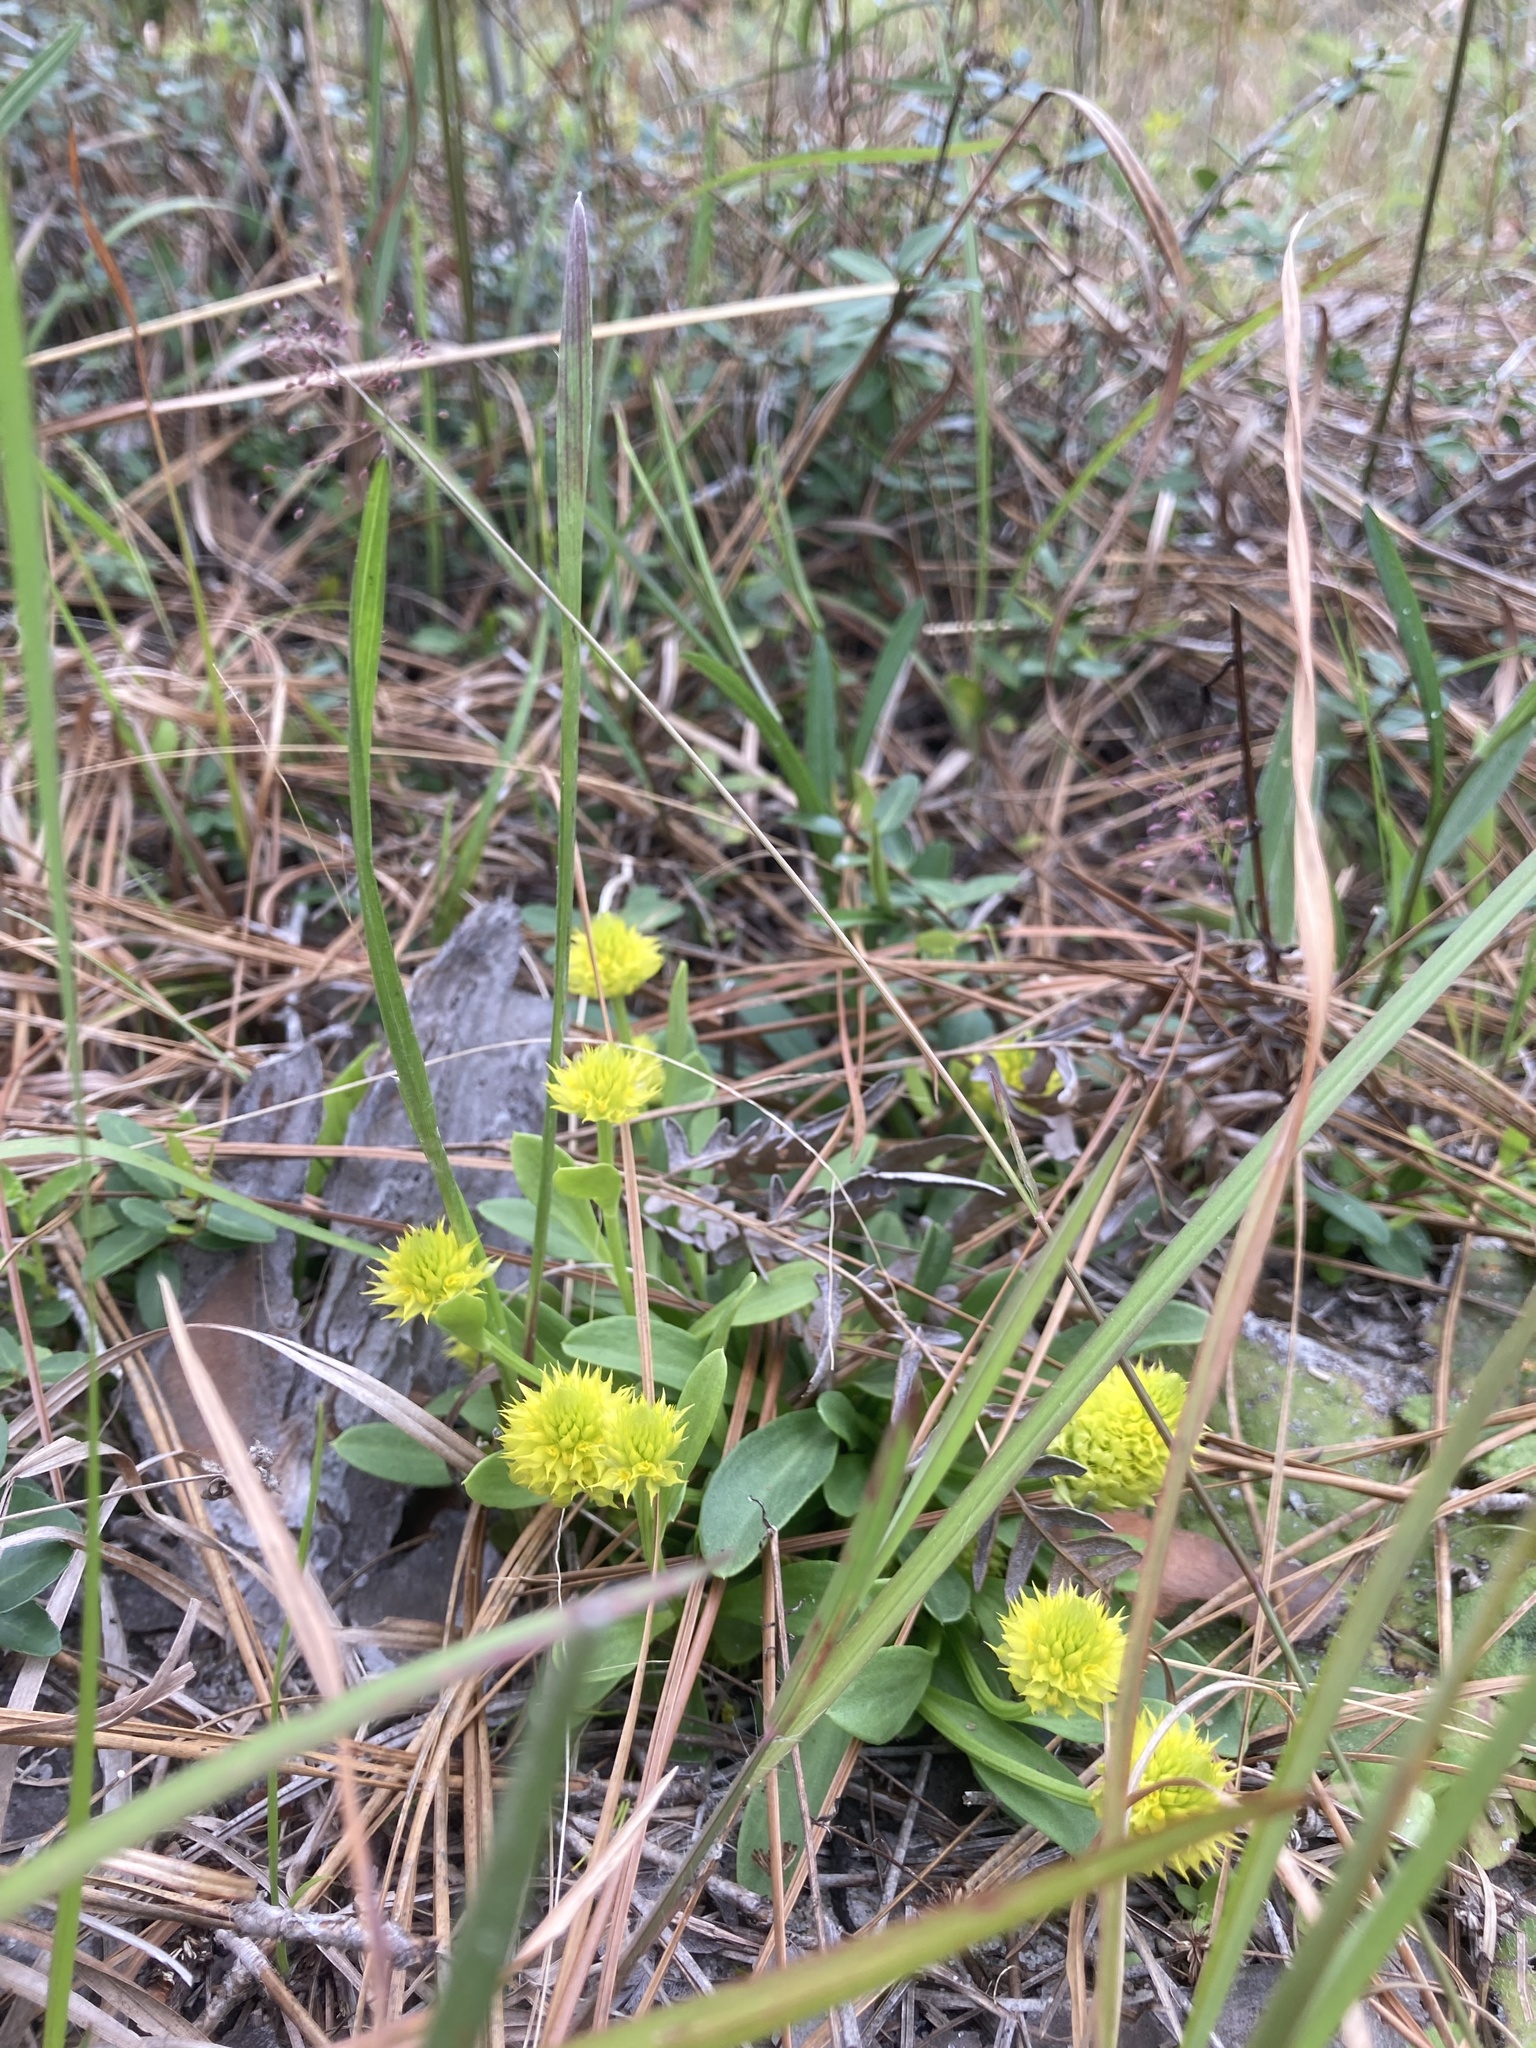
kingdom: Plantae
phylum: Tracheophyta
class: Magnoliopsida
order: Fabales
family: Polygalaceae
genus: Polygala
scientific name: Polygala nana
